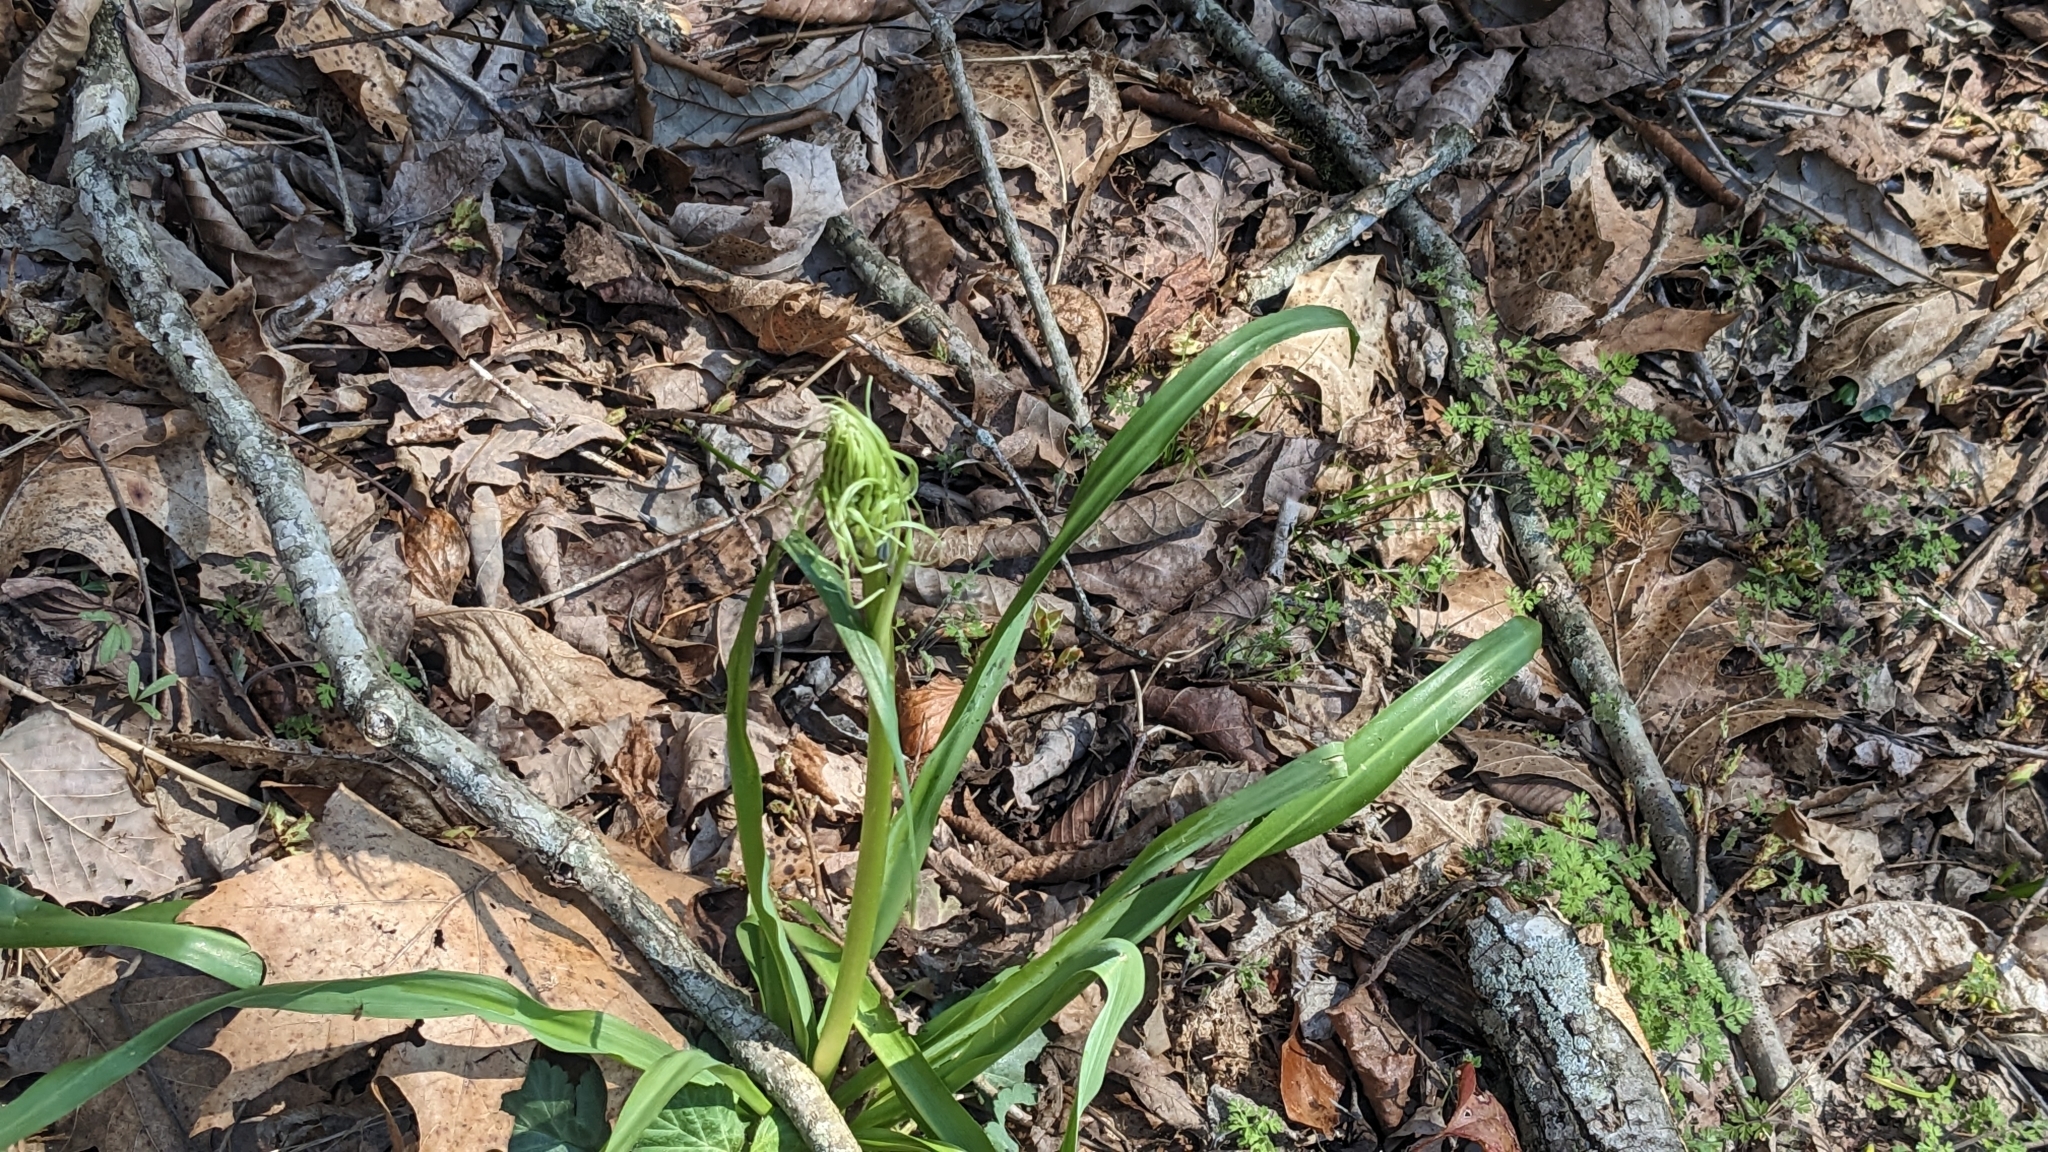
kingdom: Plantae
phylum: Tracheophyta
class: Liliopsida
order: Asparagales
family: Asparagaceae
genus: Camassia
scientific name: Camassia scilloides
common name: Wild hyacinth
